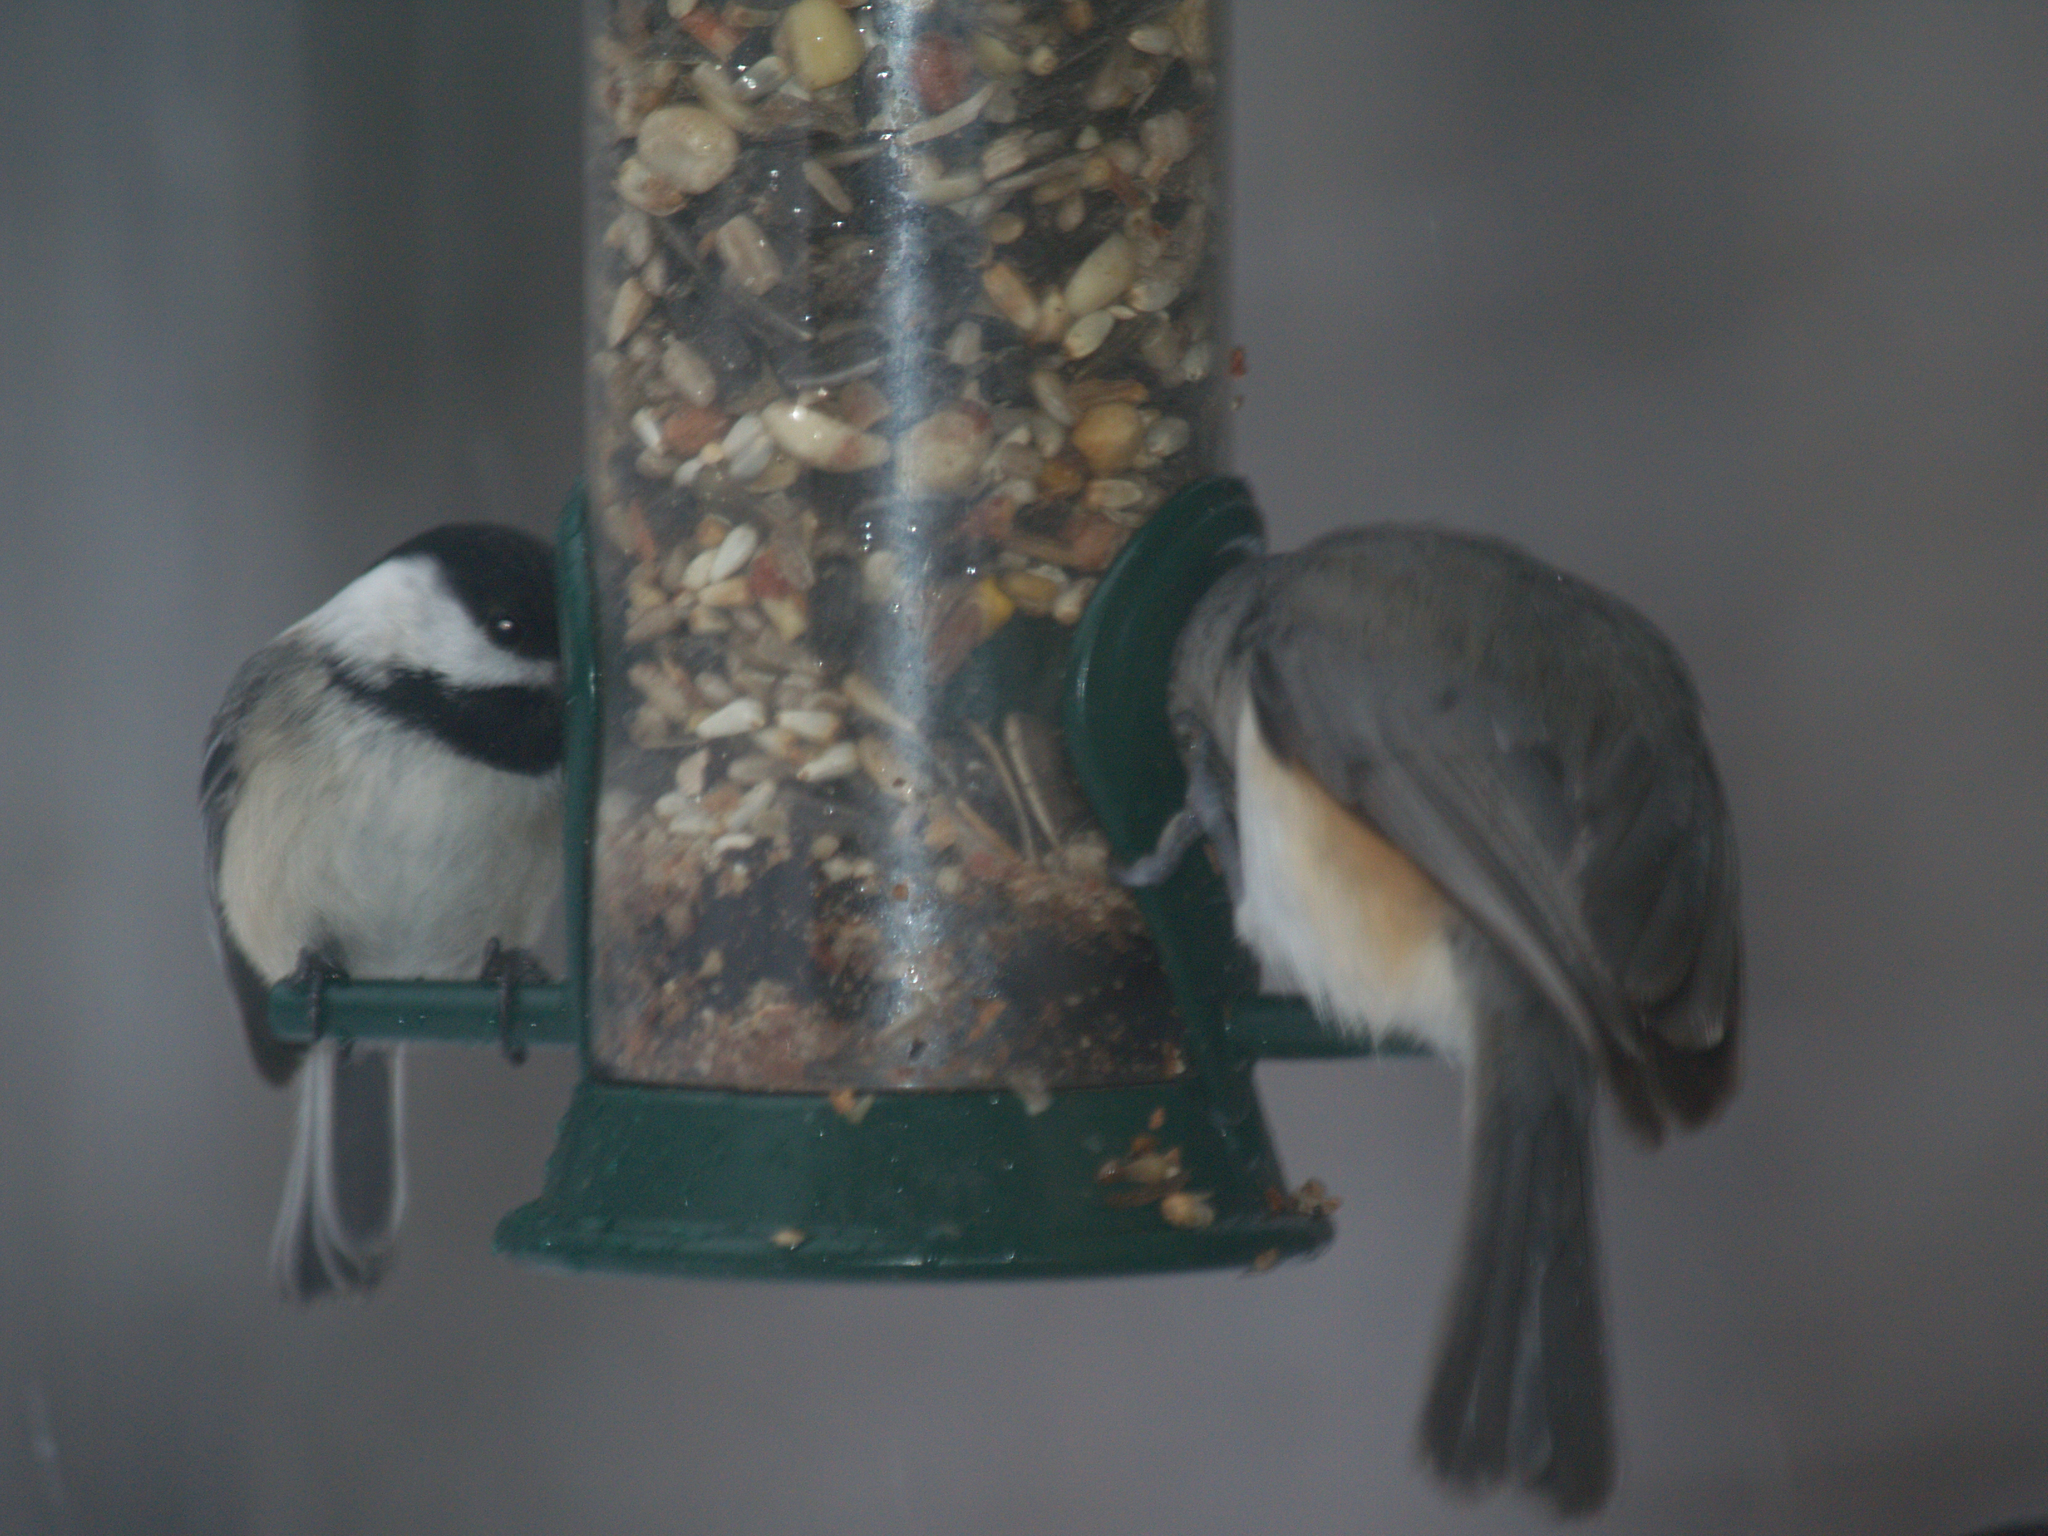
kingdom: Animalia
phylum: Chordata
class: Aves
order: Passeriformes
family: Paridae
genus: Baeolophus
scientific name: Baeolophus bicolor
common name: Tufted titmouse
